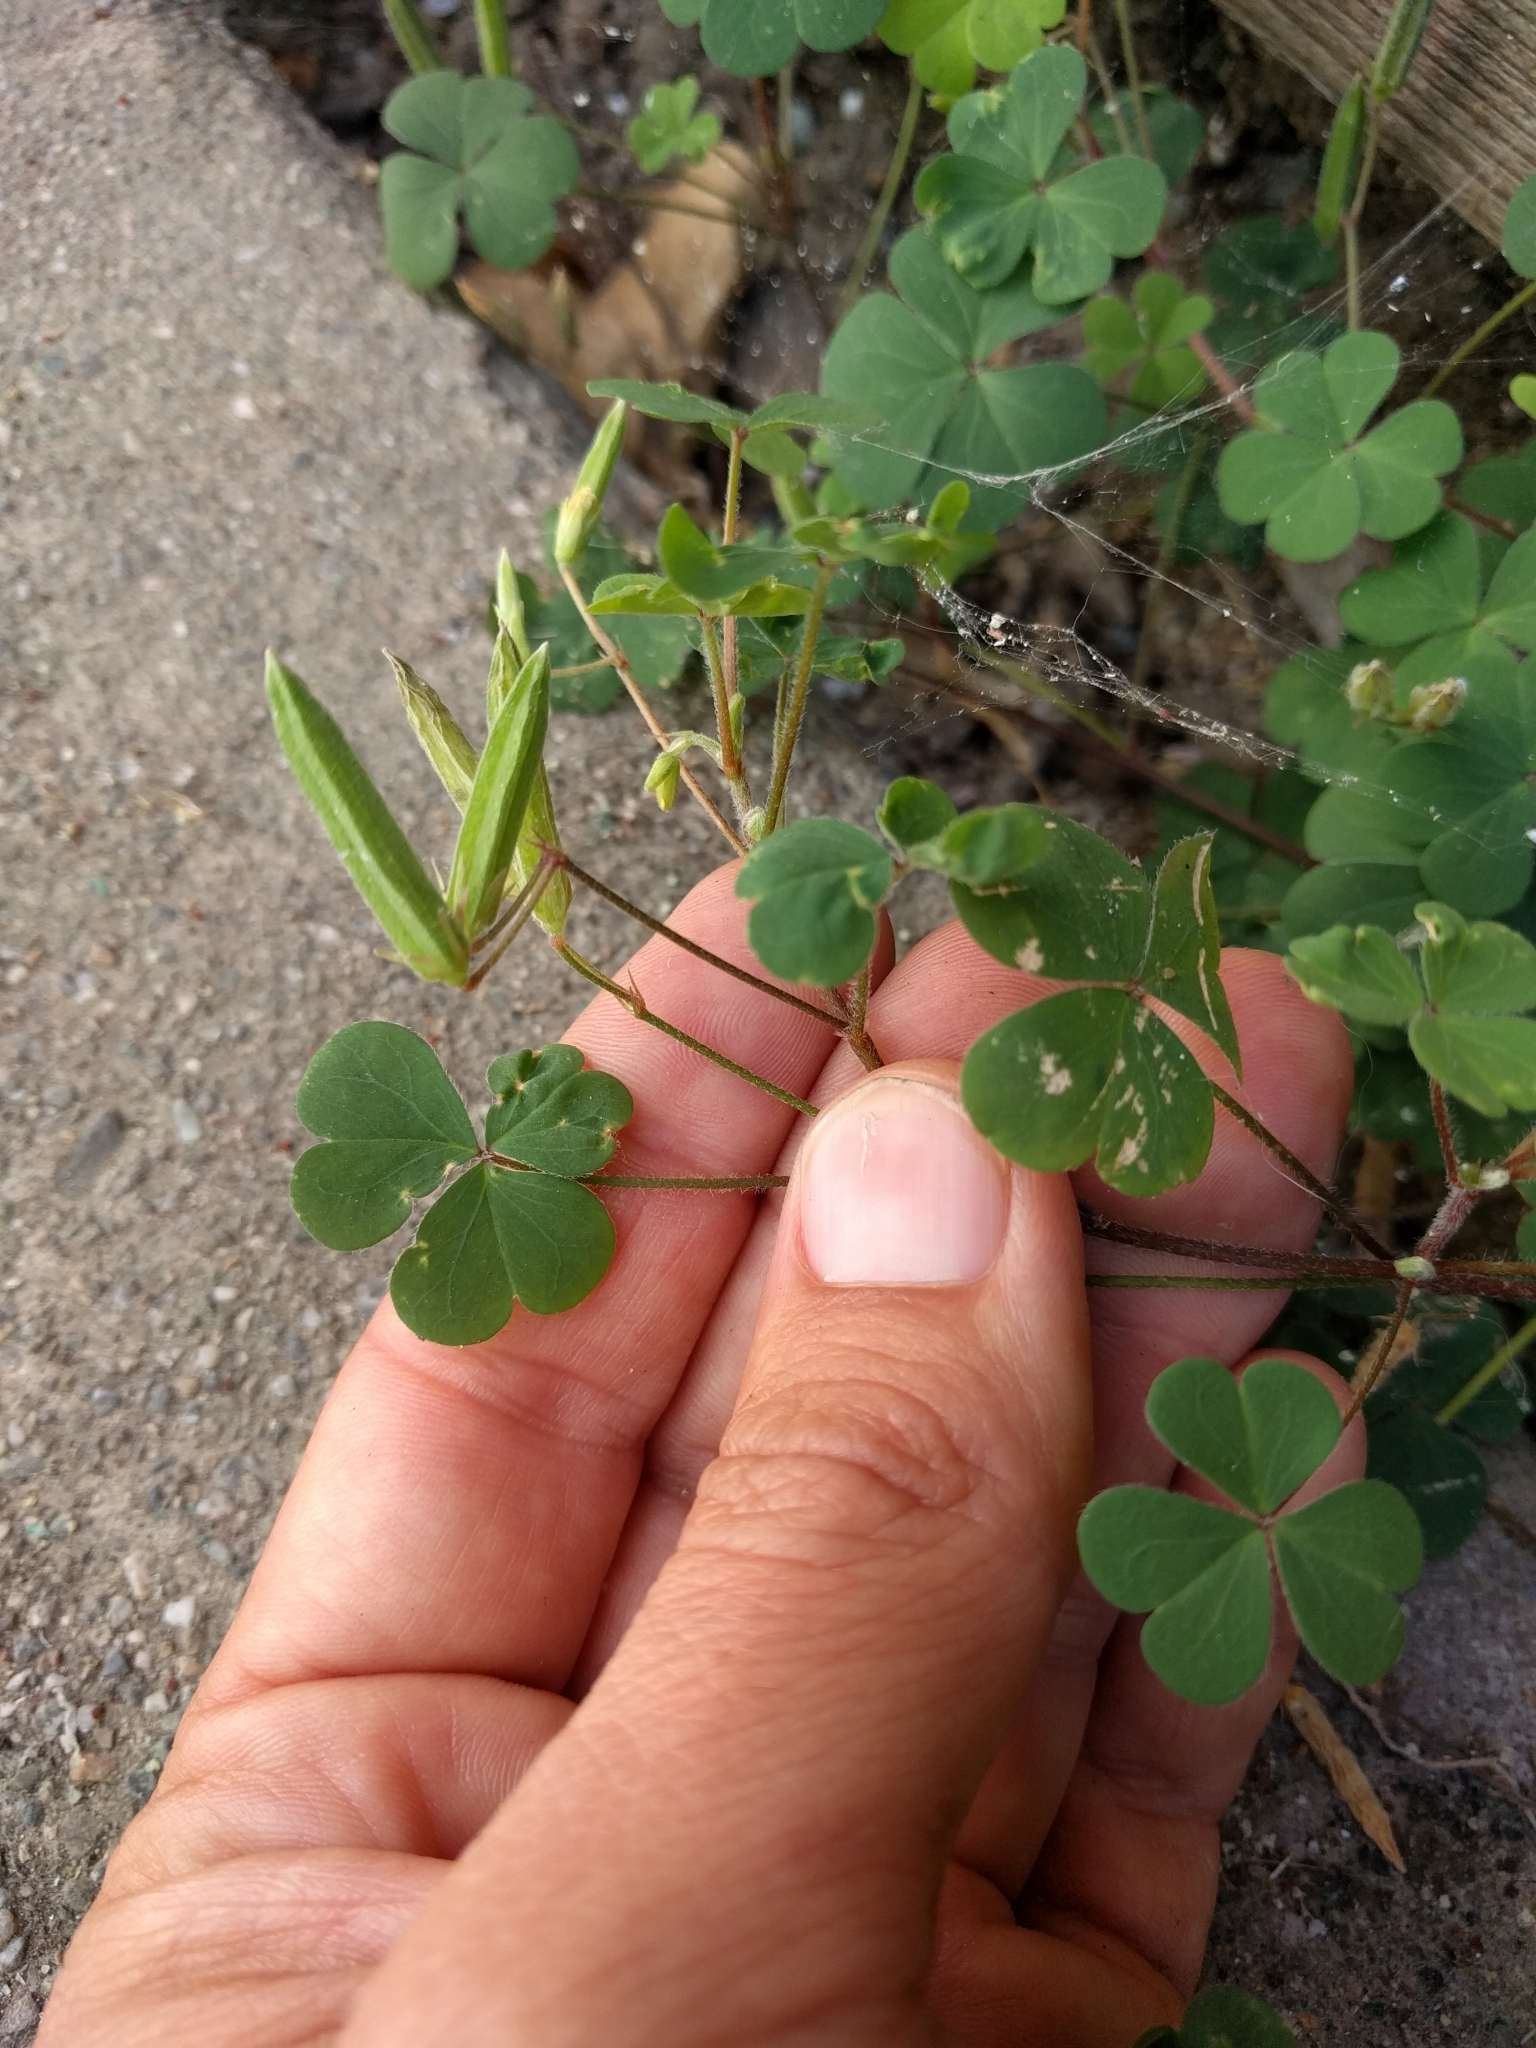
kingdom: Plantae
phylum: Tracheophyta
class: Magnoliopsida
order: Oxalidales
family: Oxalidaceae
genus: Oxalis
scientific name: Oxalis corniculata
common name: Procumbent yellow-sorrel
